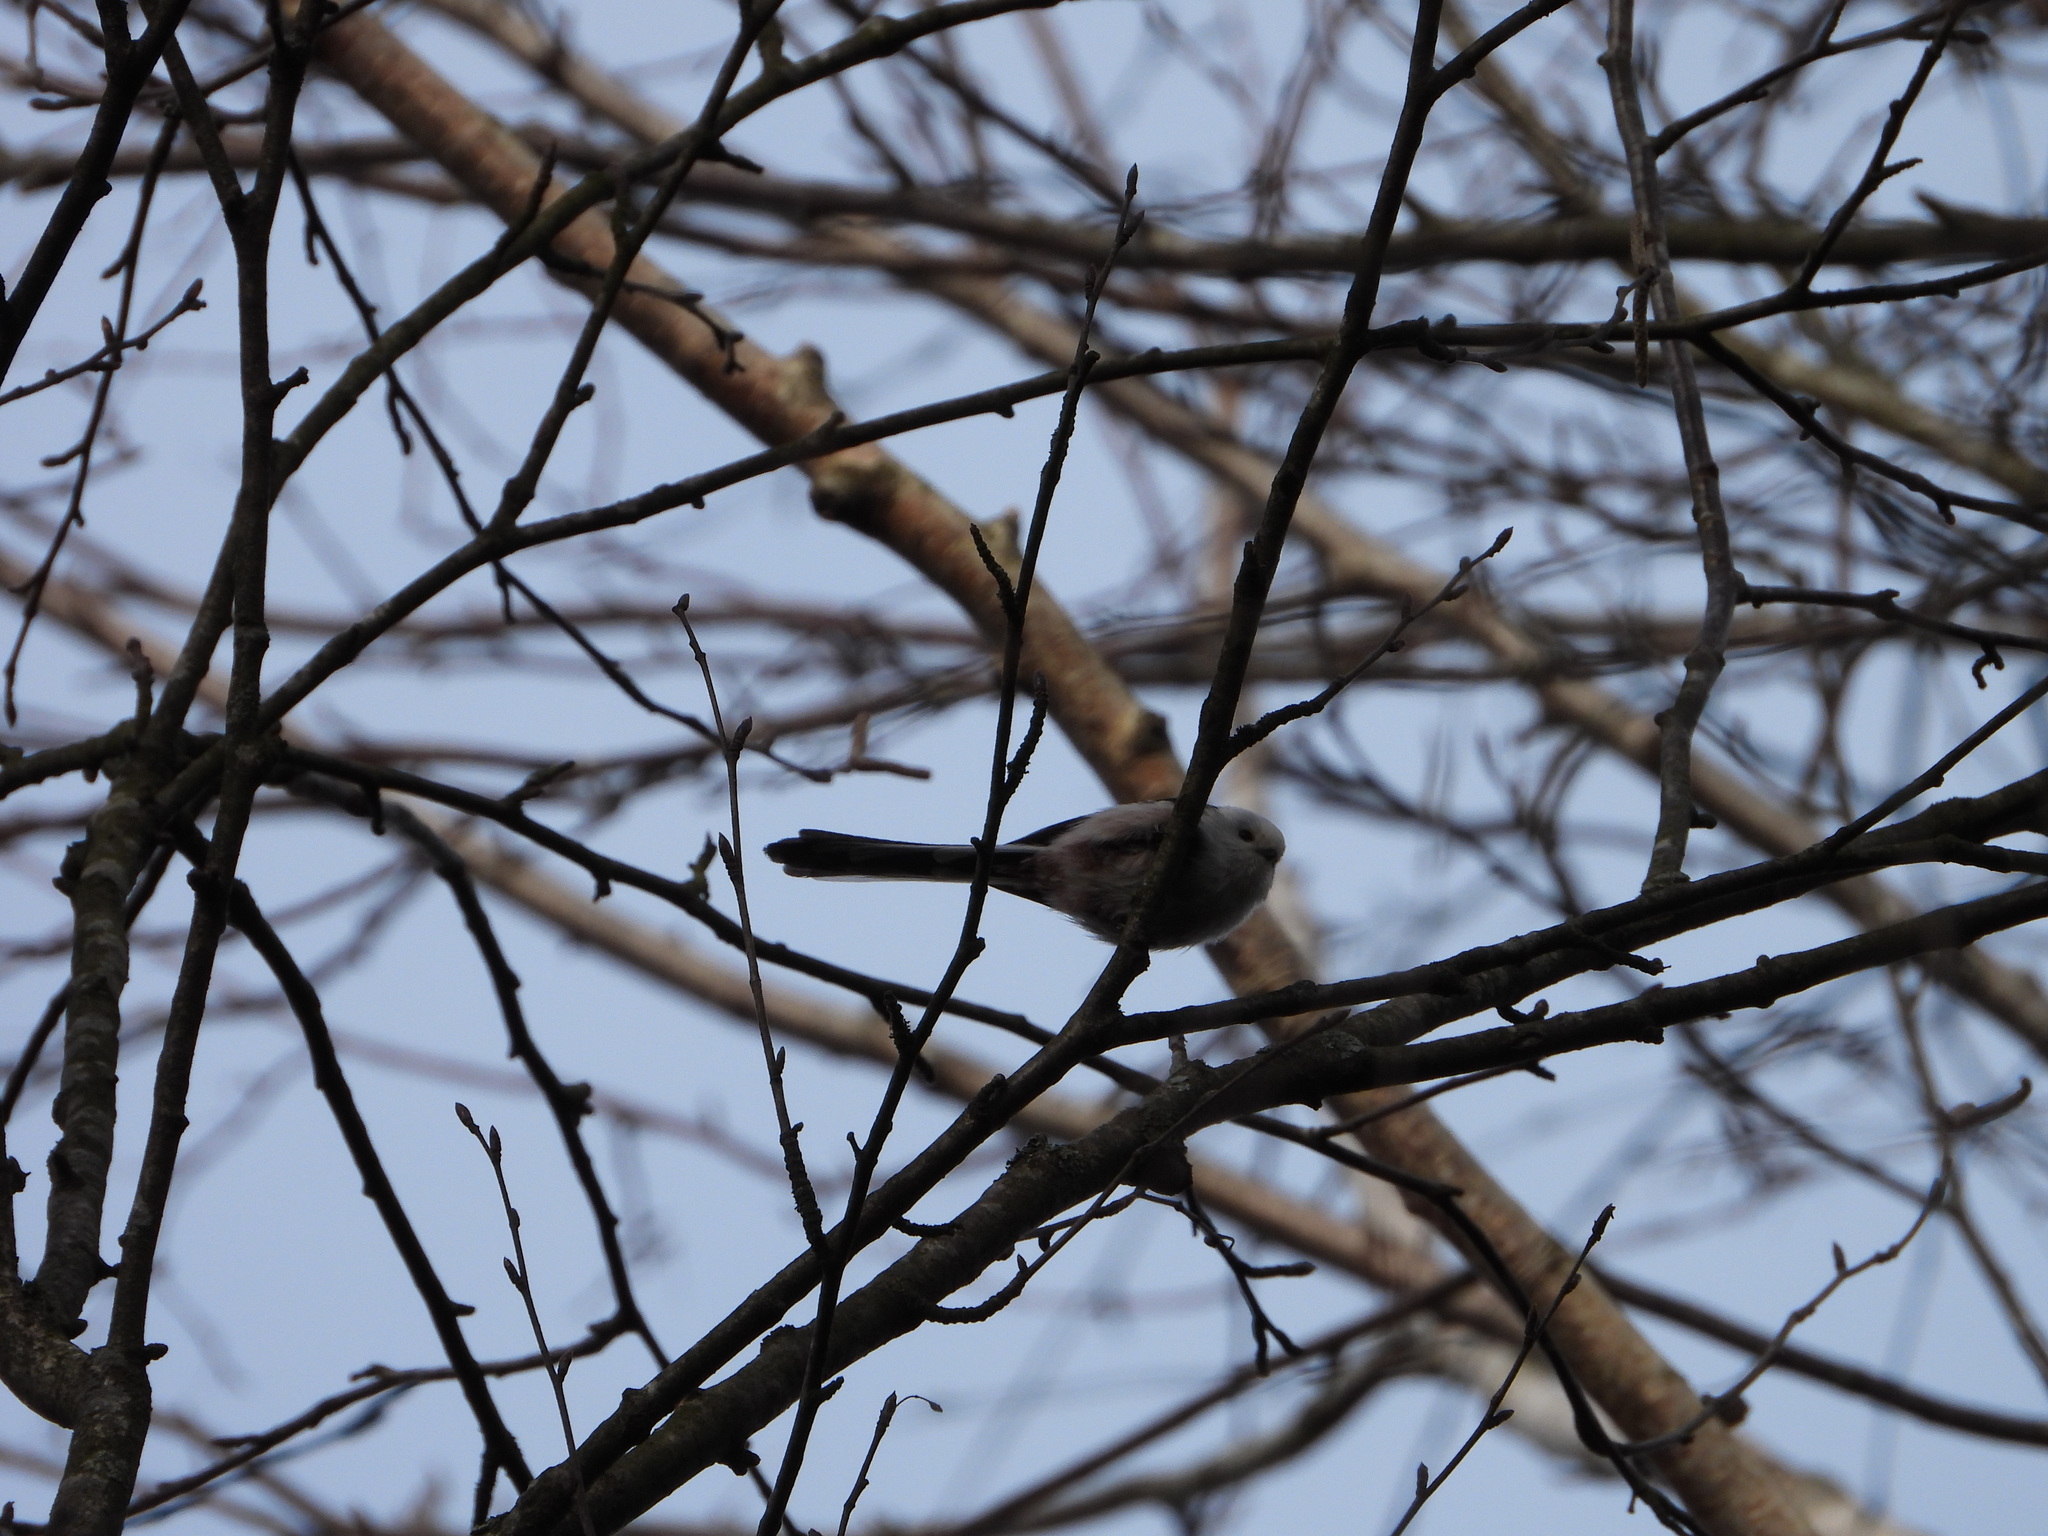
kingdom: Animalia
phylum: Chordata
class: Aves
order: Passeriformes
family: Aegithalidae
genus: Aegithalos
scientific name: Aegithalos caudatus
